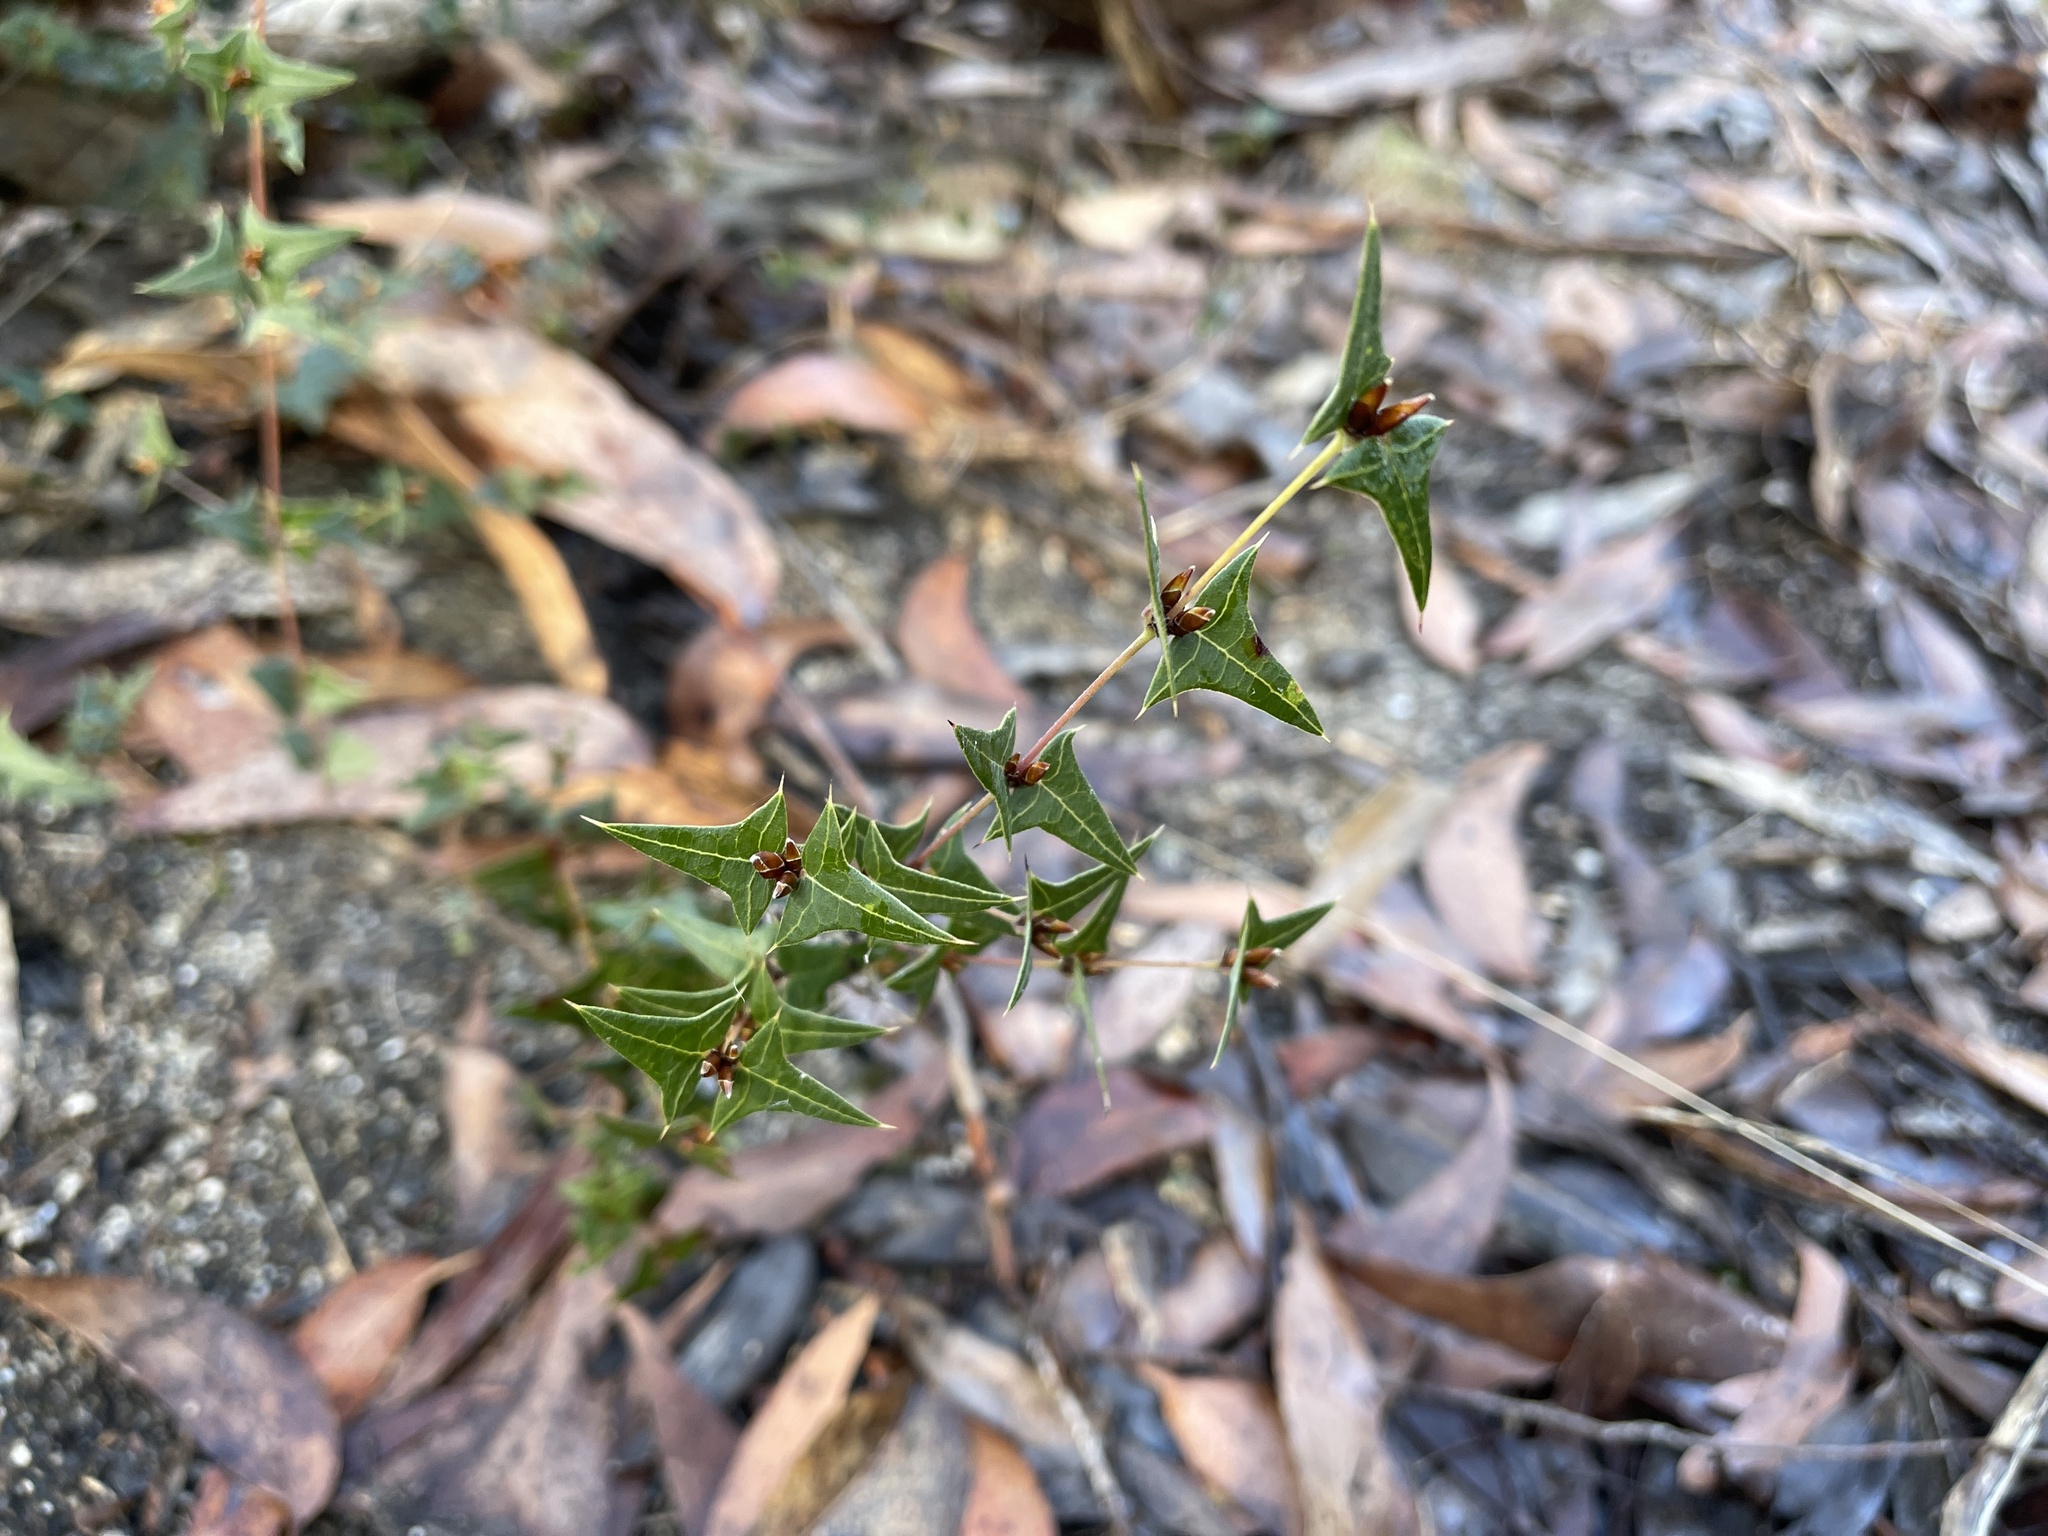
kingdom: Plantae
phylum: Tracheophyta
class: Magnoliopsida
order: Fabales
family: Fabaceae
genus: Platylobium
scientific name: Platylobium obtusangulum
